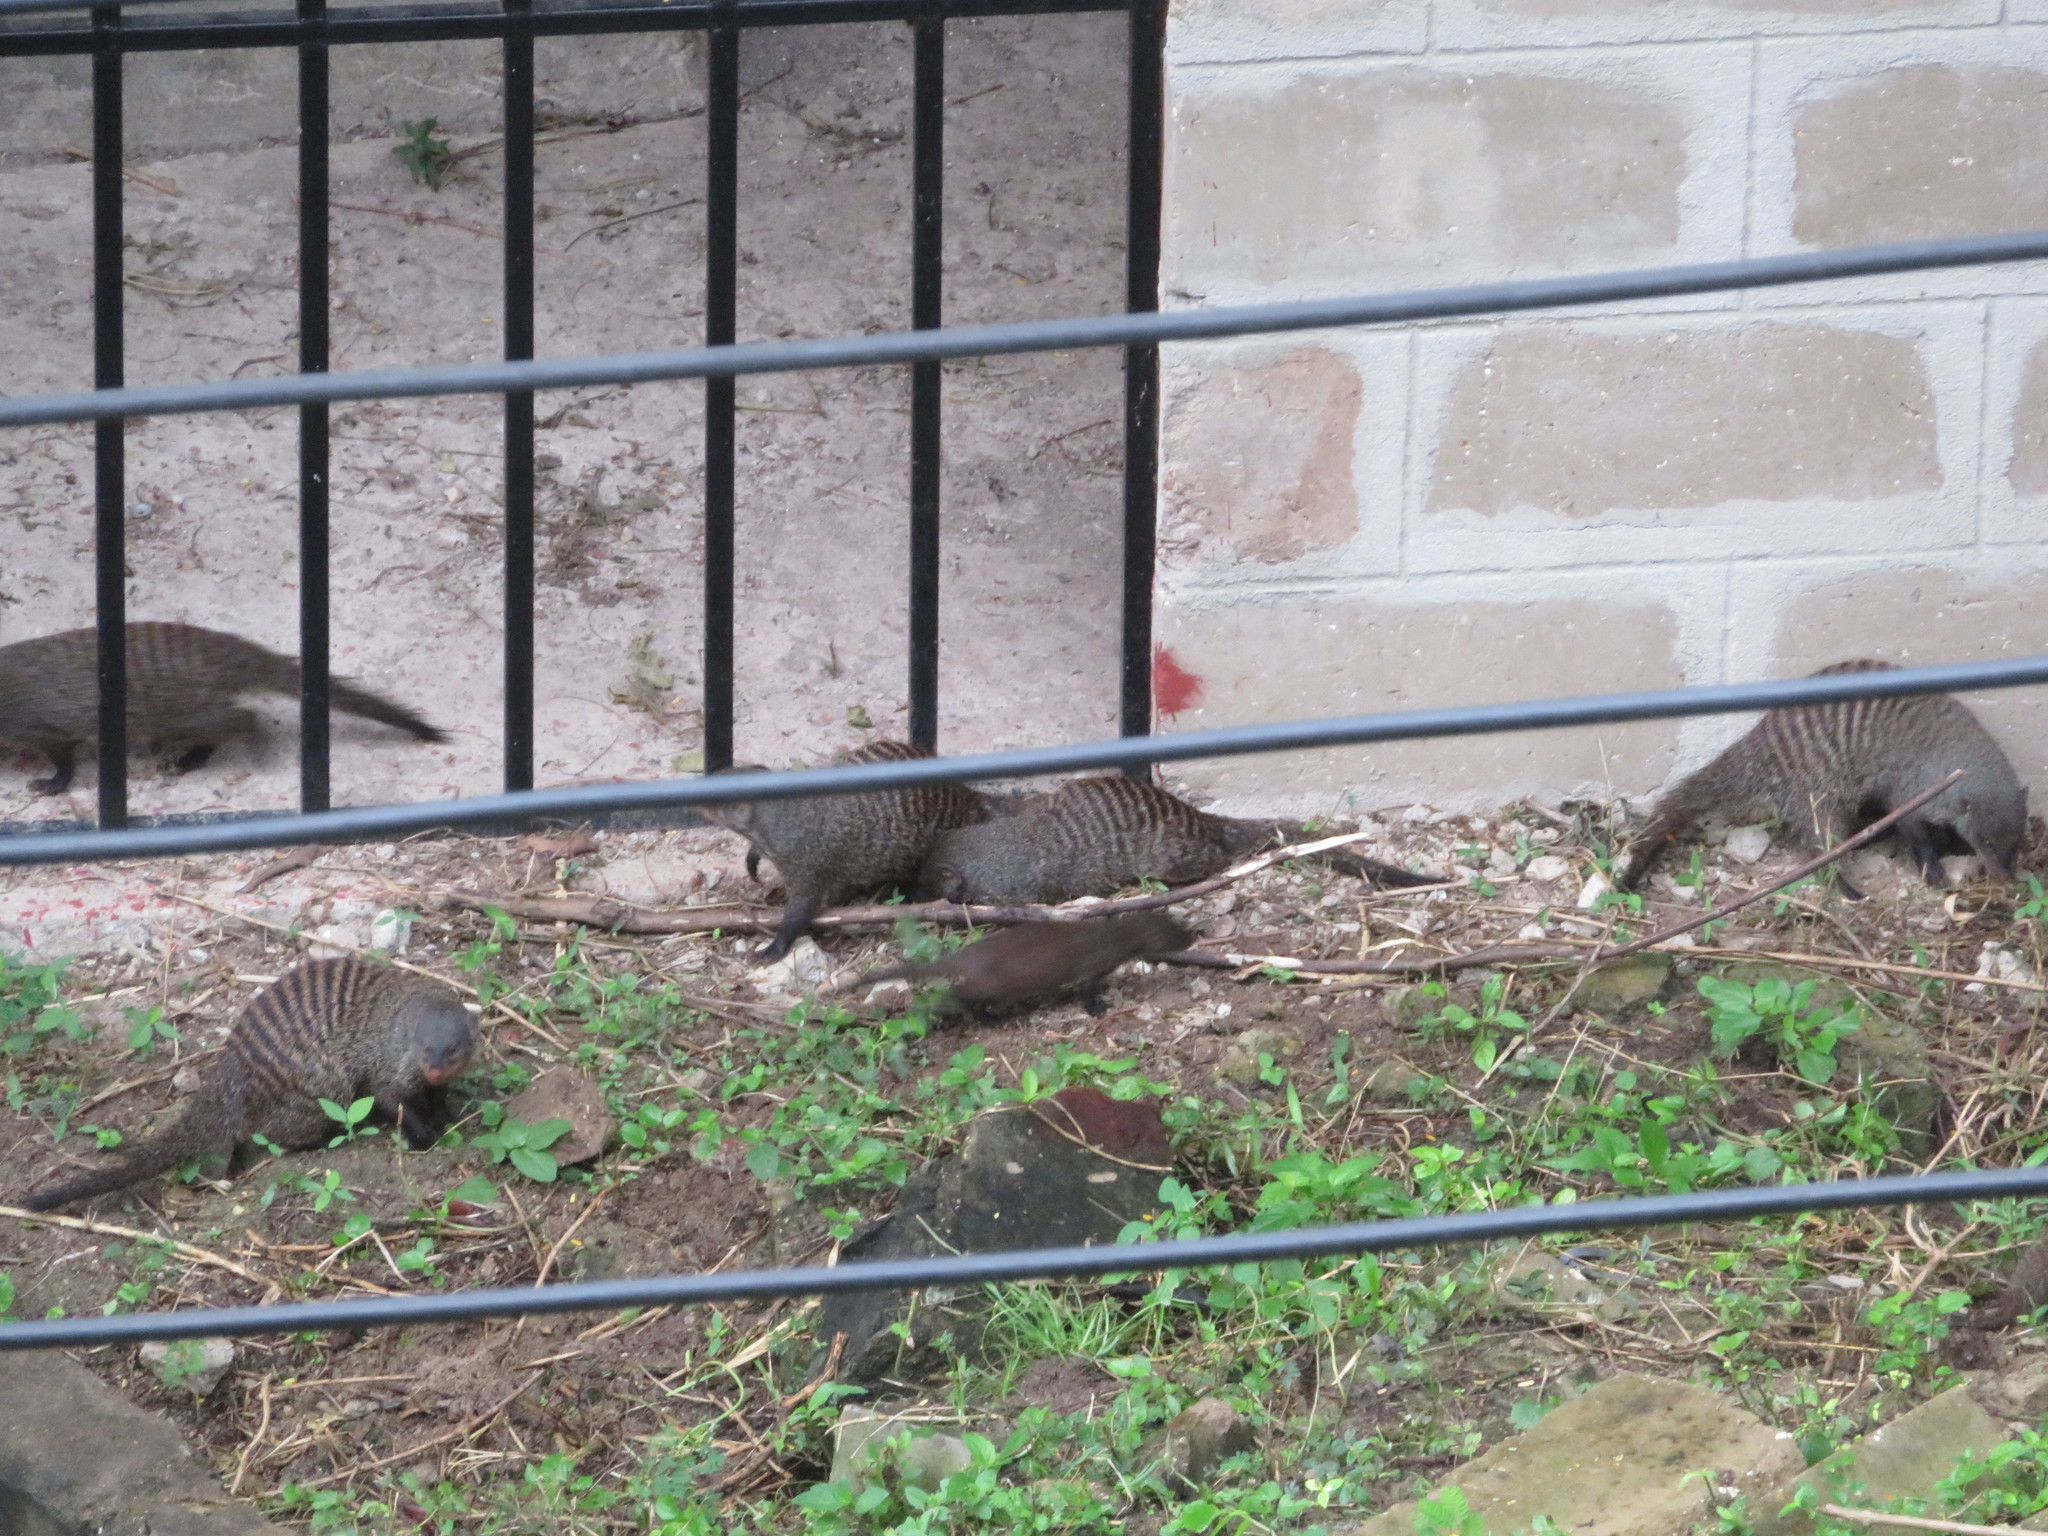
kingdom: Animalia
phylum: Chordata
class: Mammalia
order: Carnivora
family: Herpestidae
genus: Mungos
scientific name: Mungos mungo
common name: Banded mongoose
